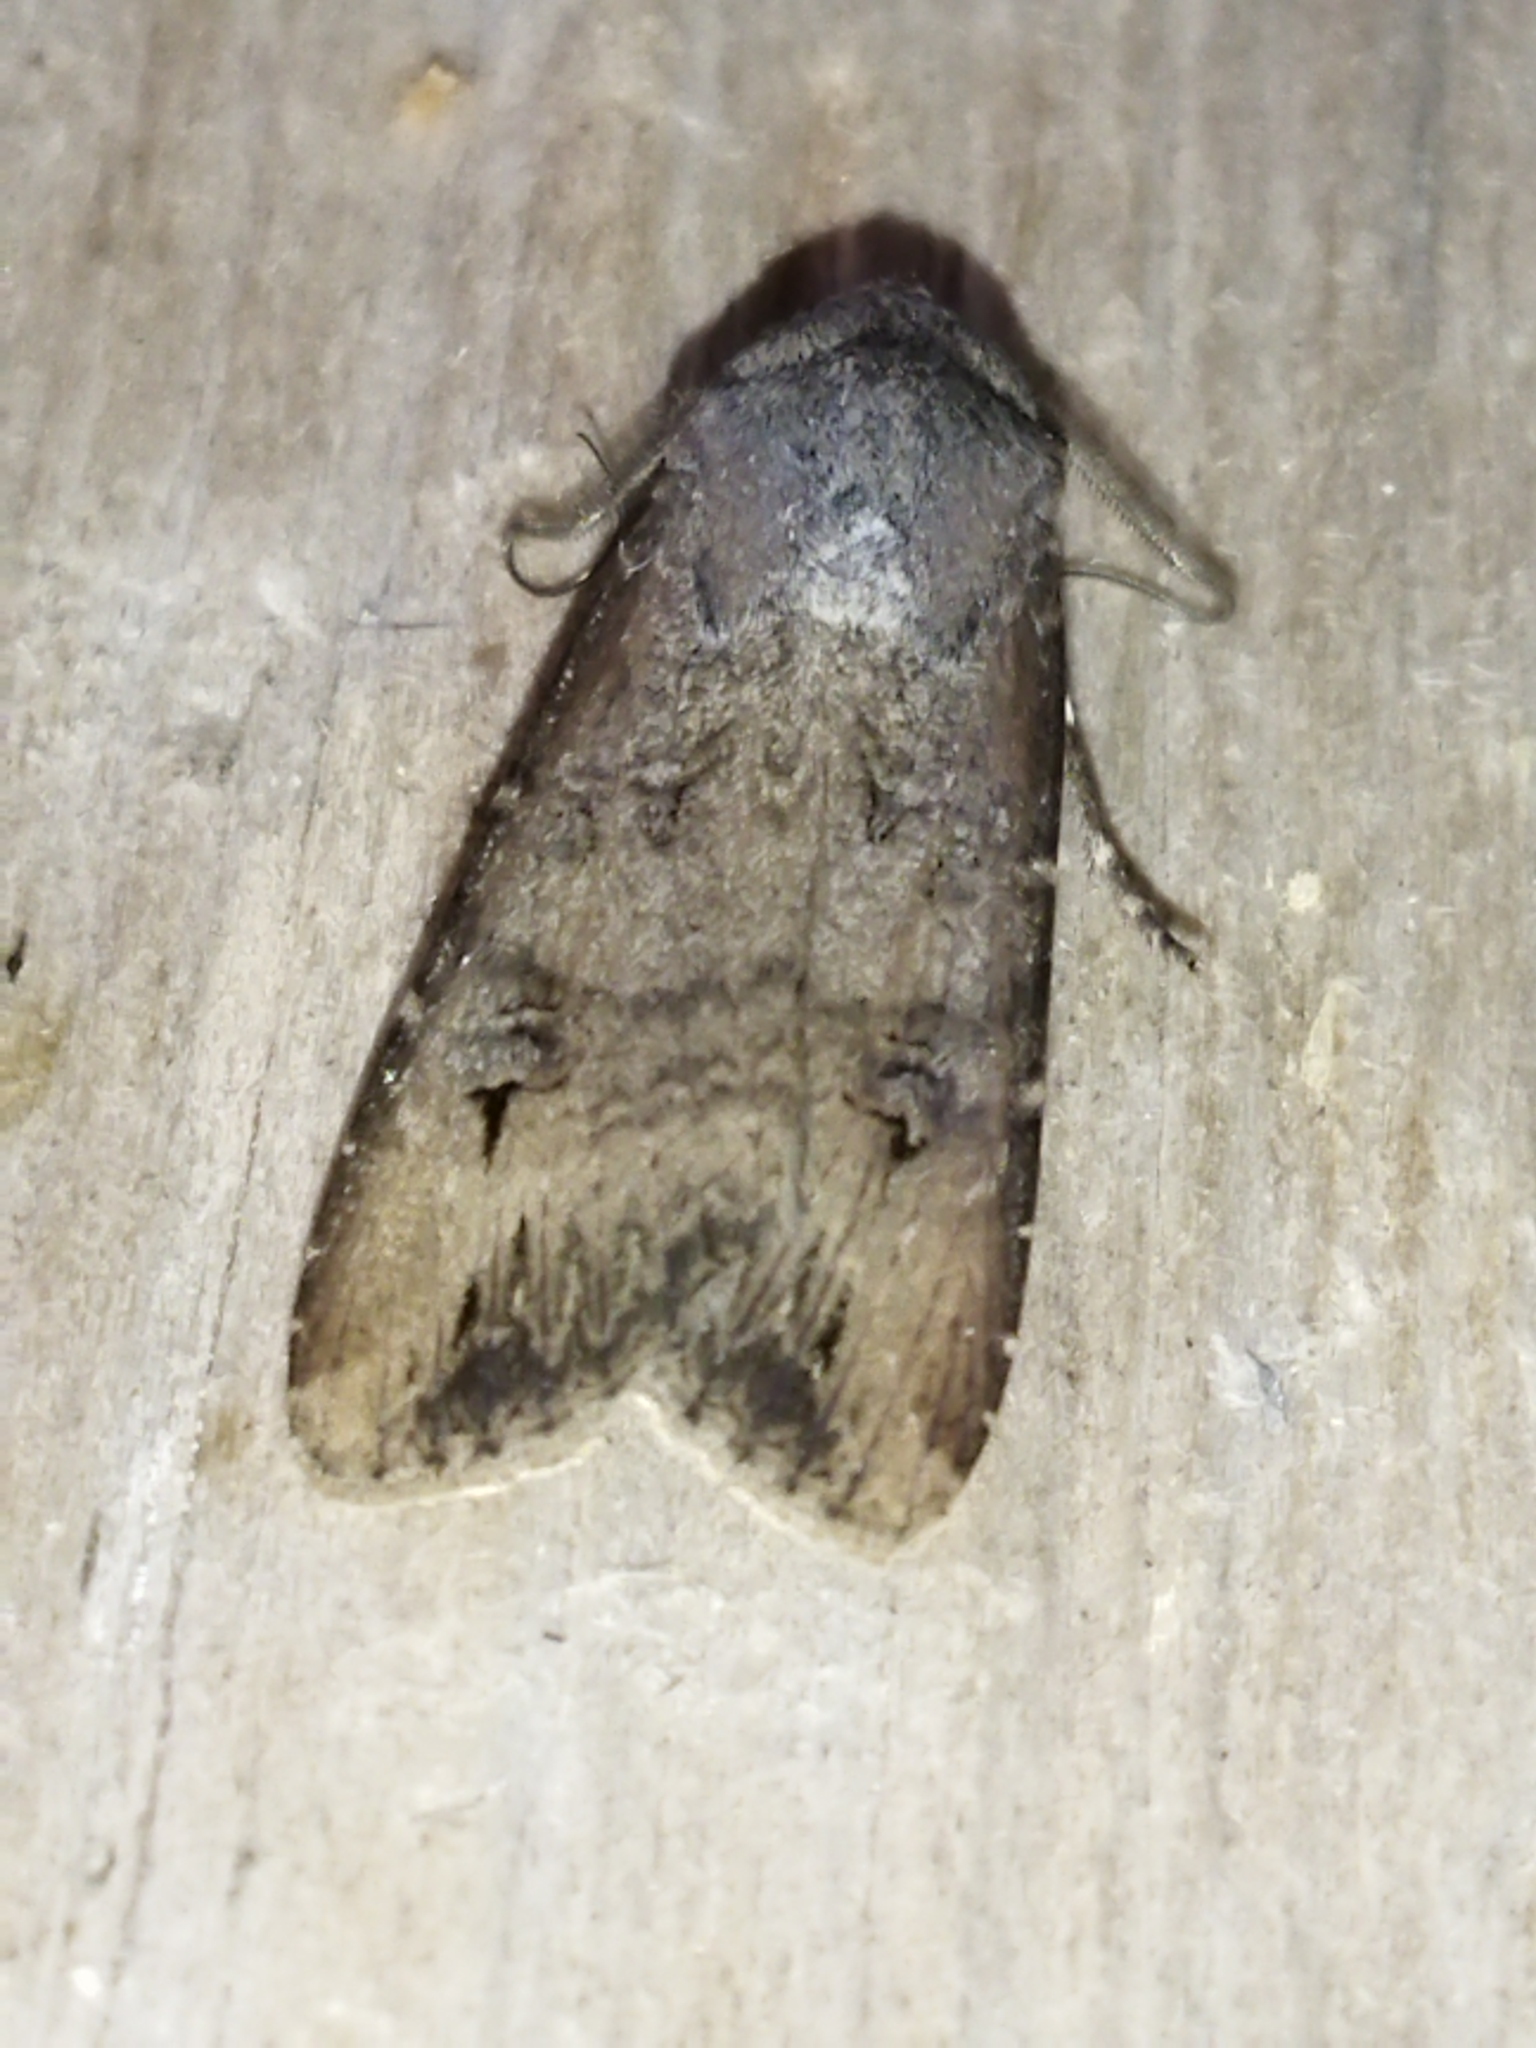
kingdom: Animalia
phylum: Arthropoda
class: Insecta
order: Lepidoptera
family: Noctuidae
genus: Agrotis
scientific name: Agrotis ipsilon
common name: Dark sword-grass
